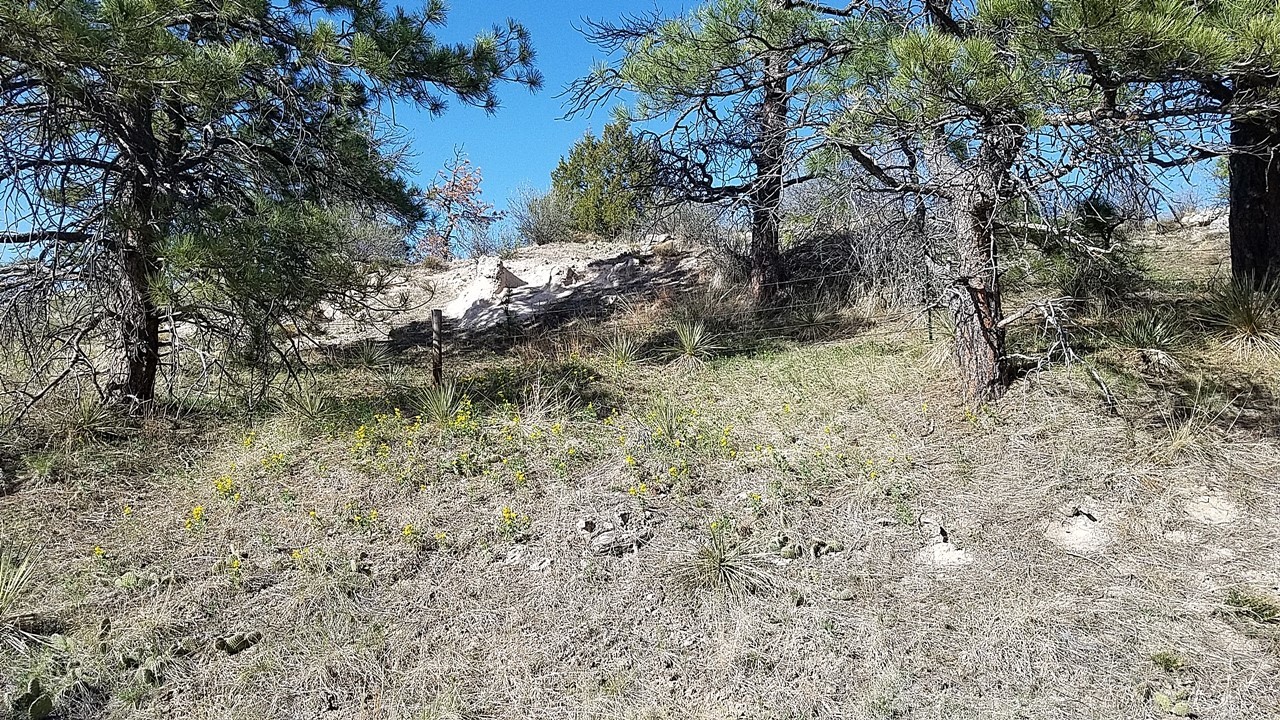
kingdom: Plantae
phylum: Tracheophyta
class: Magnoliopsida
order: Fabales
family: Fabaceae
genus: Thermopsis
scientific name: Thermopsis rhombifolia
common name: Circle-pod-pea
